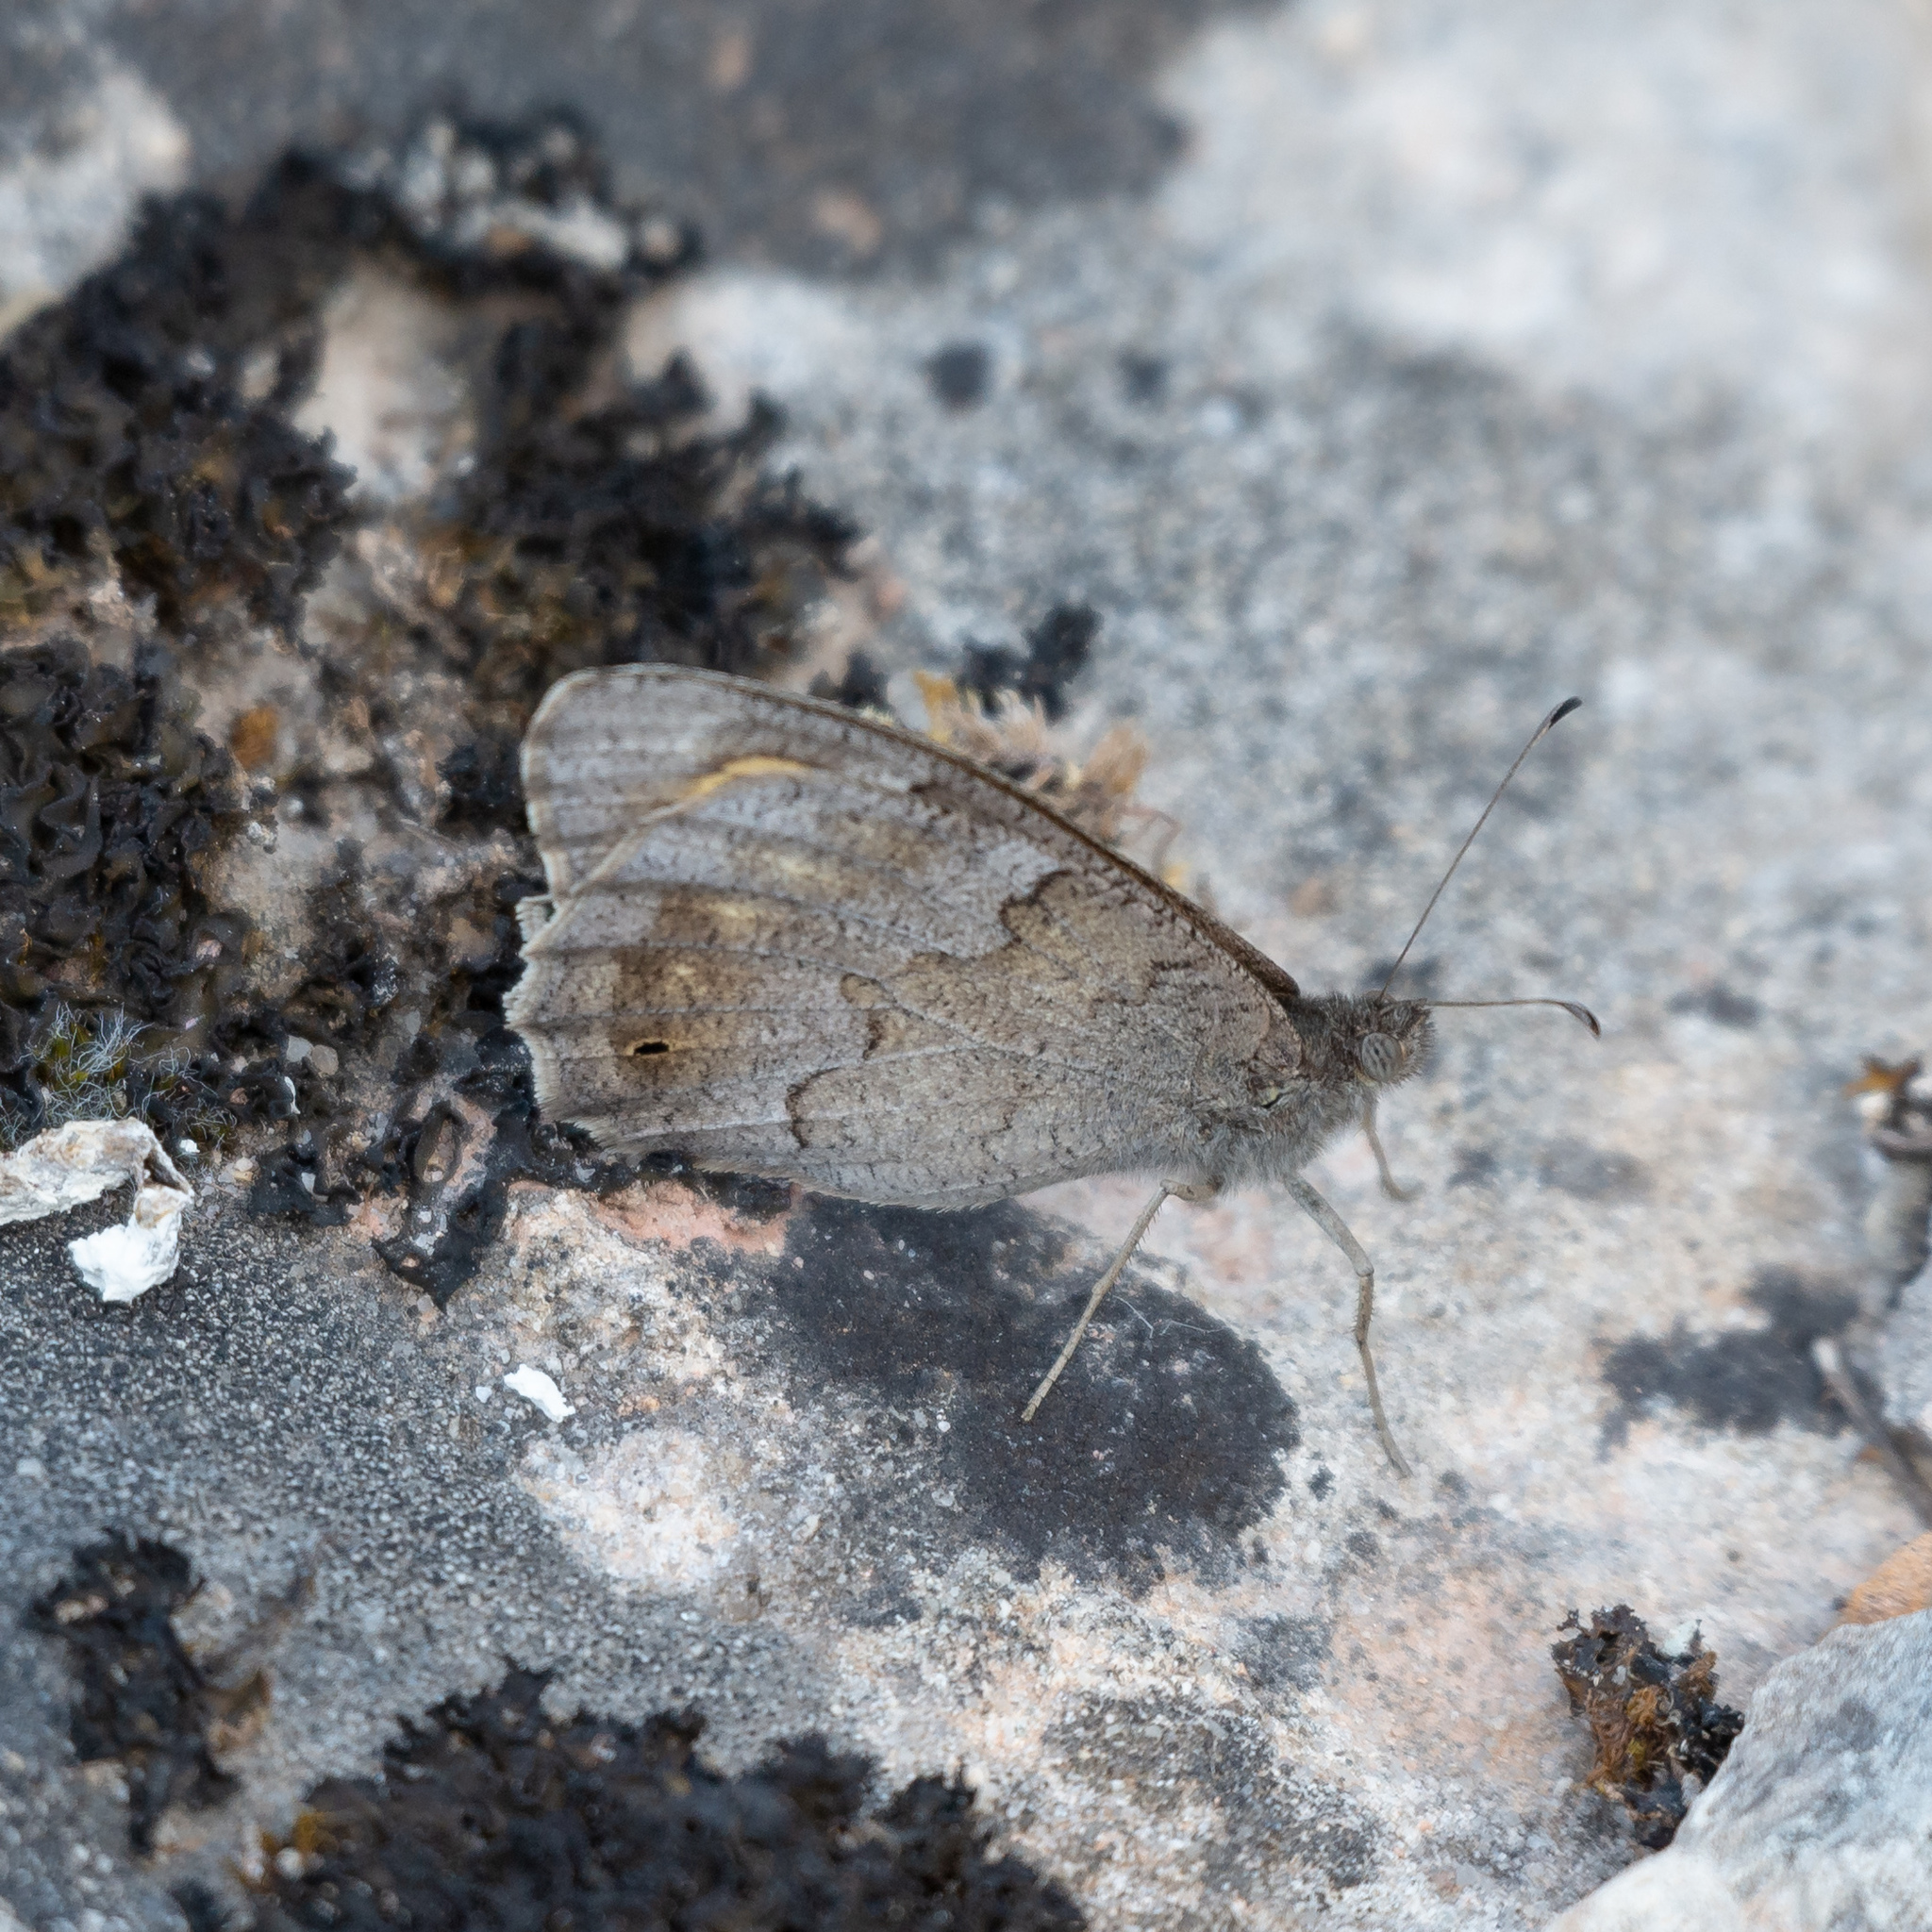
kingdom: Animalia
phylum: Arthropoda
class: Insecta
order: Lepidoptera
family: Nymphalidae
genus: Hipparchia
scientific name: Hipparchia statilinus
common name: Tree grayling
